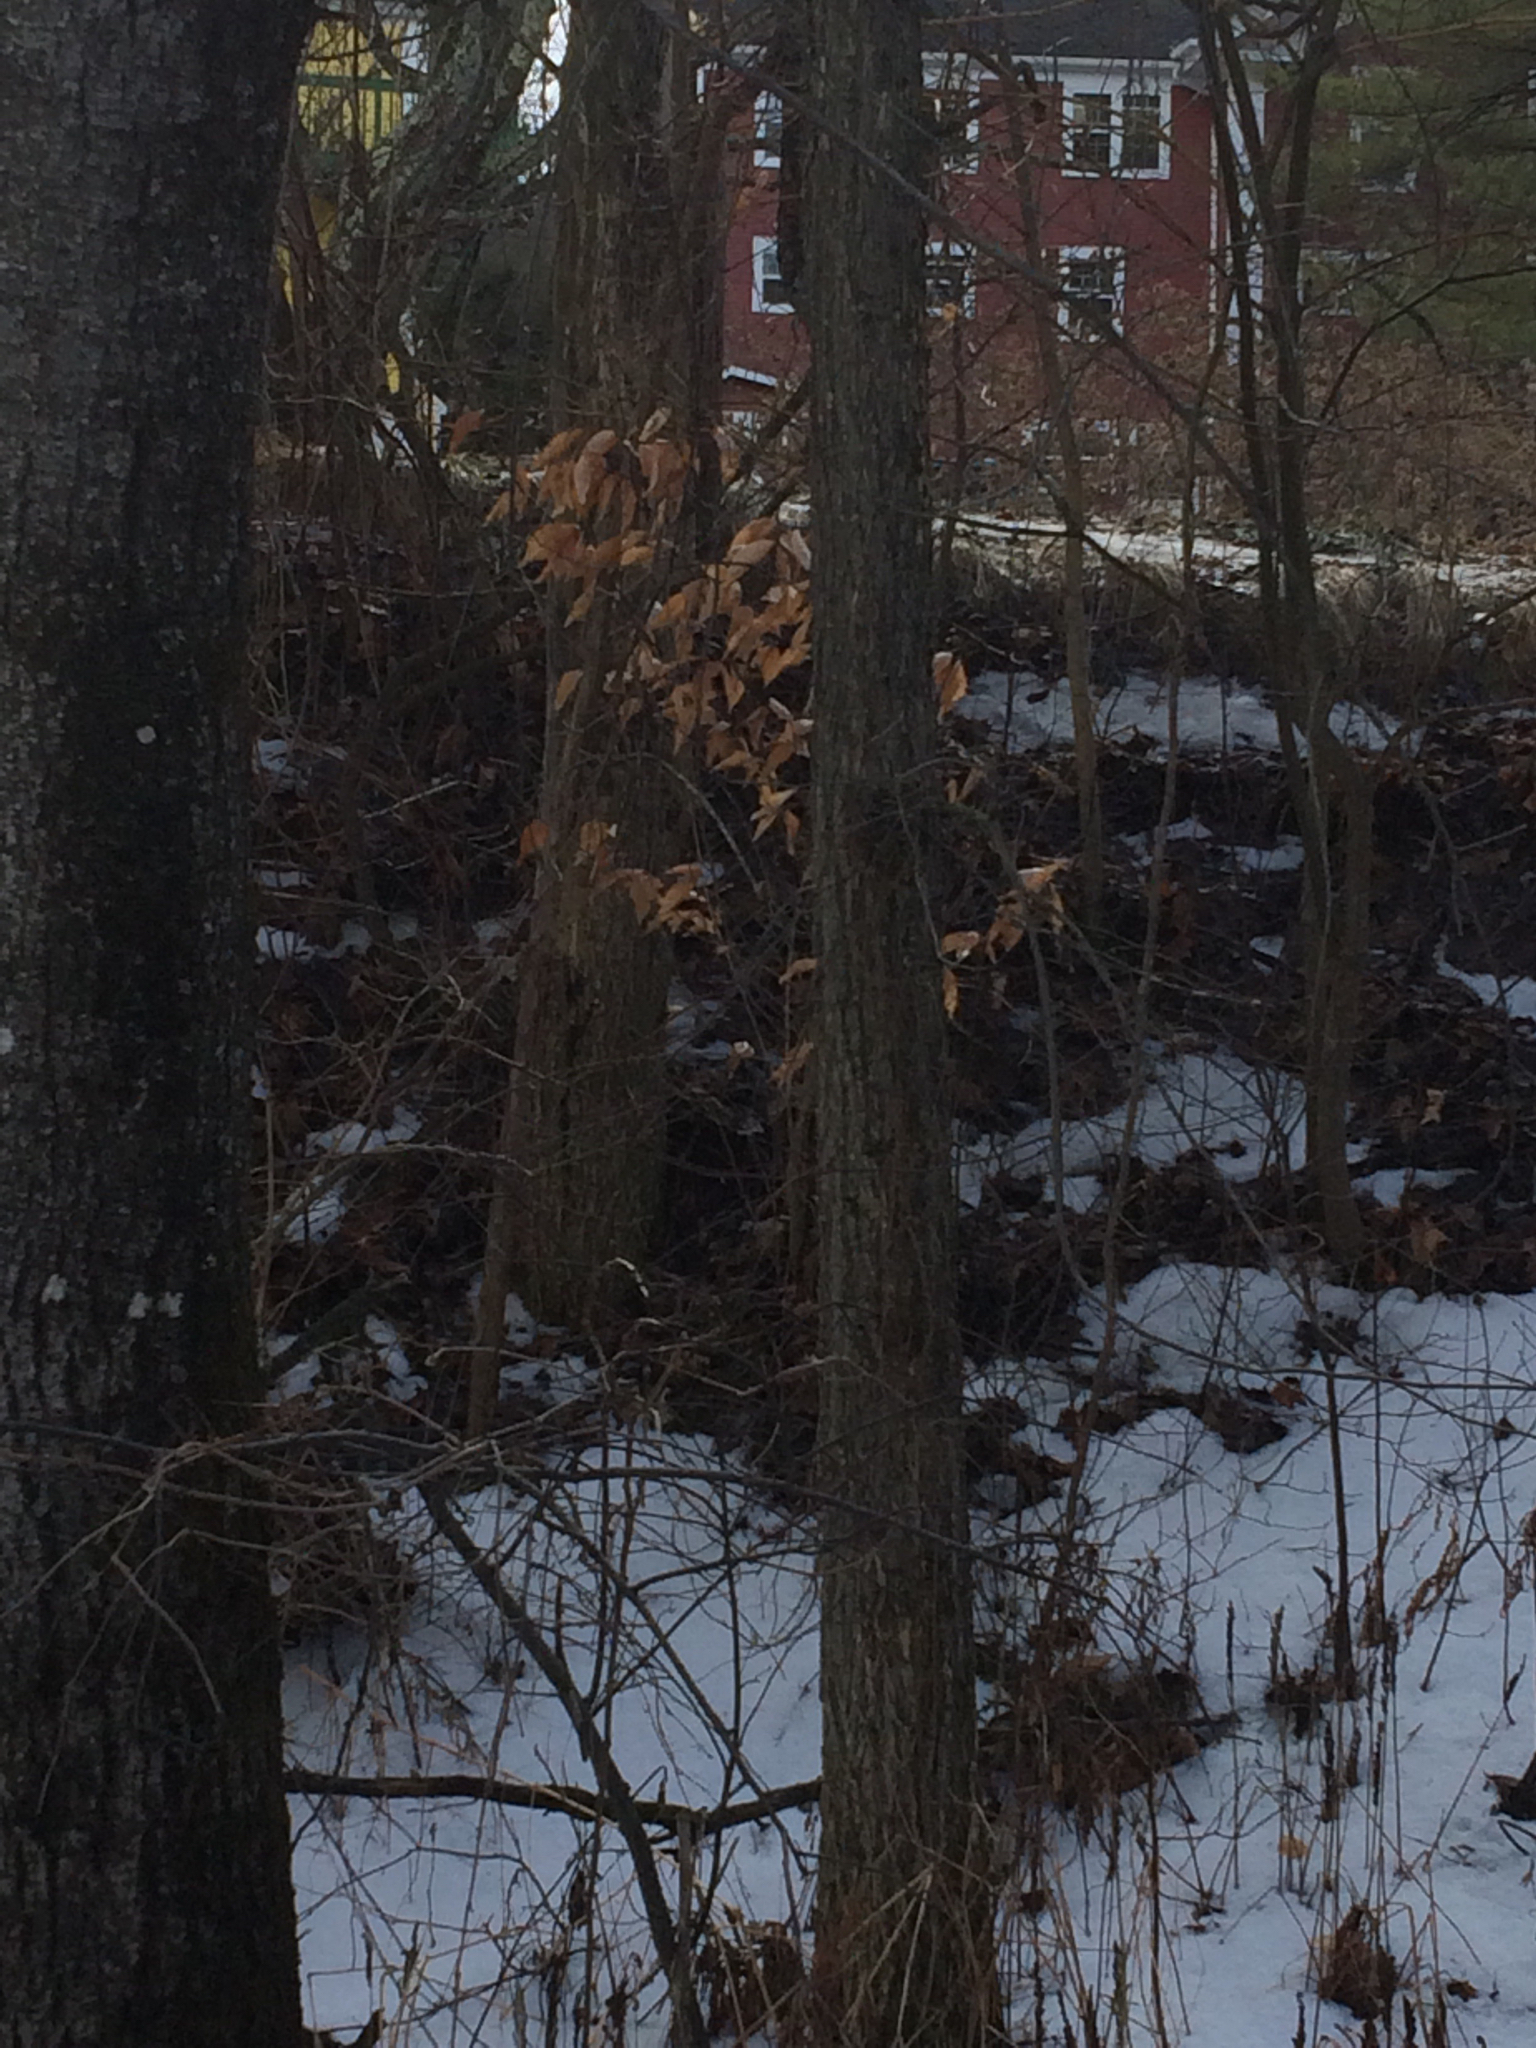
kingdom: Plantae
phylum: Tracheophyta
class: Magnoliopsida
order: Fagales
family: Fagaceae
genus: Fagus
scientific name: Fagus grandifolia
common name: American beech
